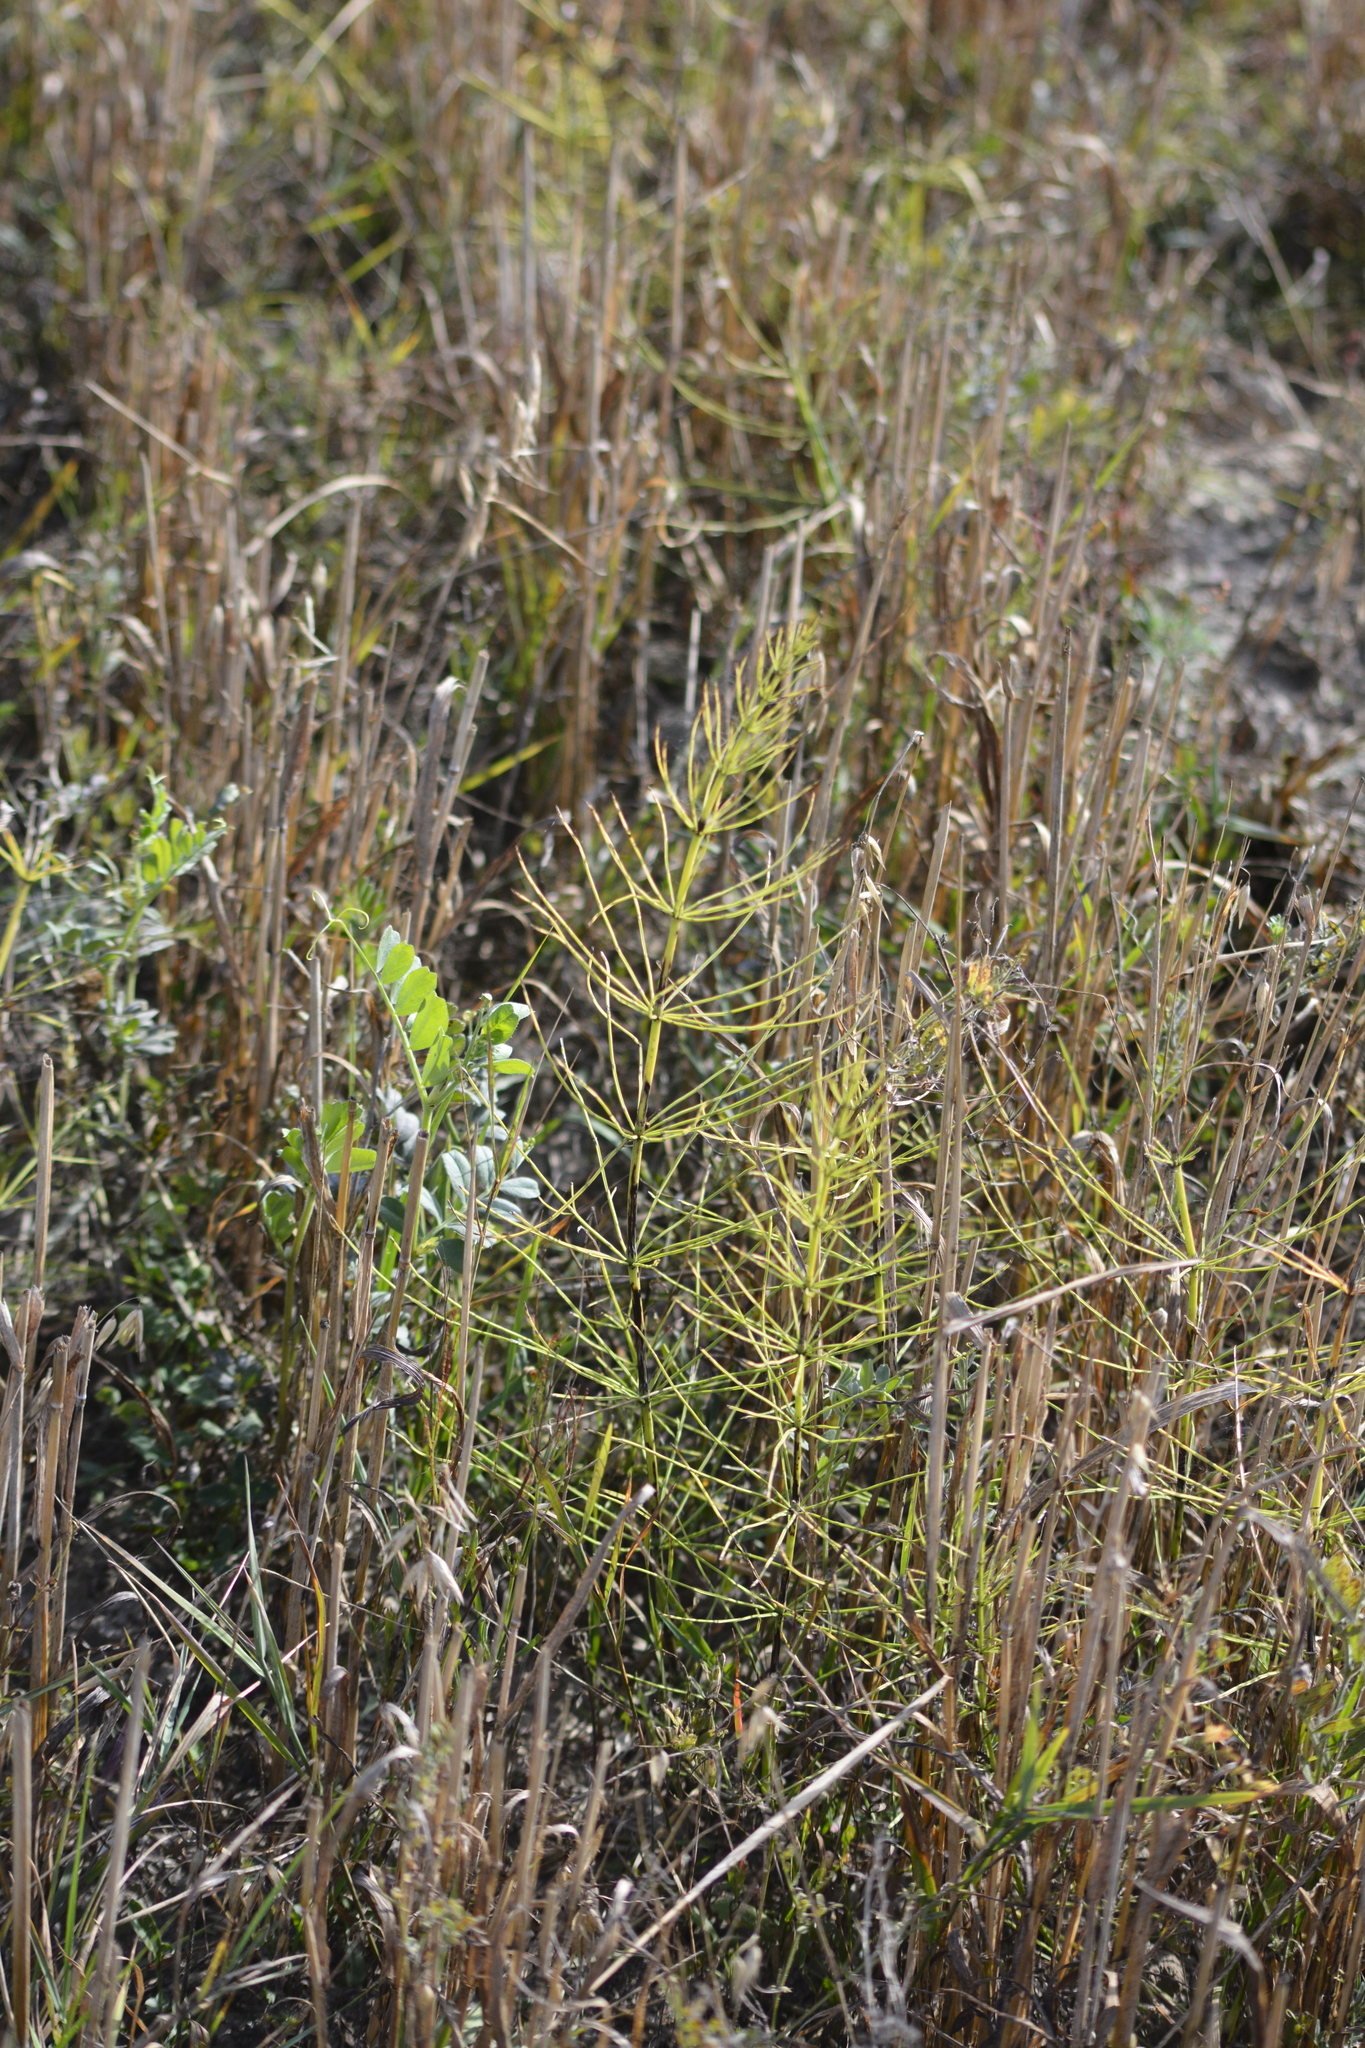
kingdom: Plantae
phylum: Tracheophyta
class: Polypodiopsida
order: Equisetales
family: Equisetaceae
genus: Equisetum
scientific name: Equisetum arvense
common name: Field horsetail
